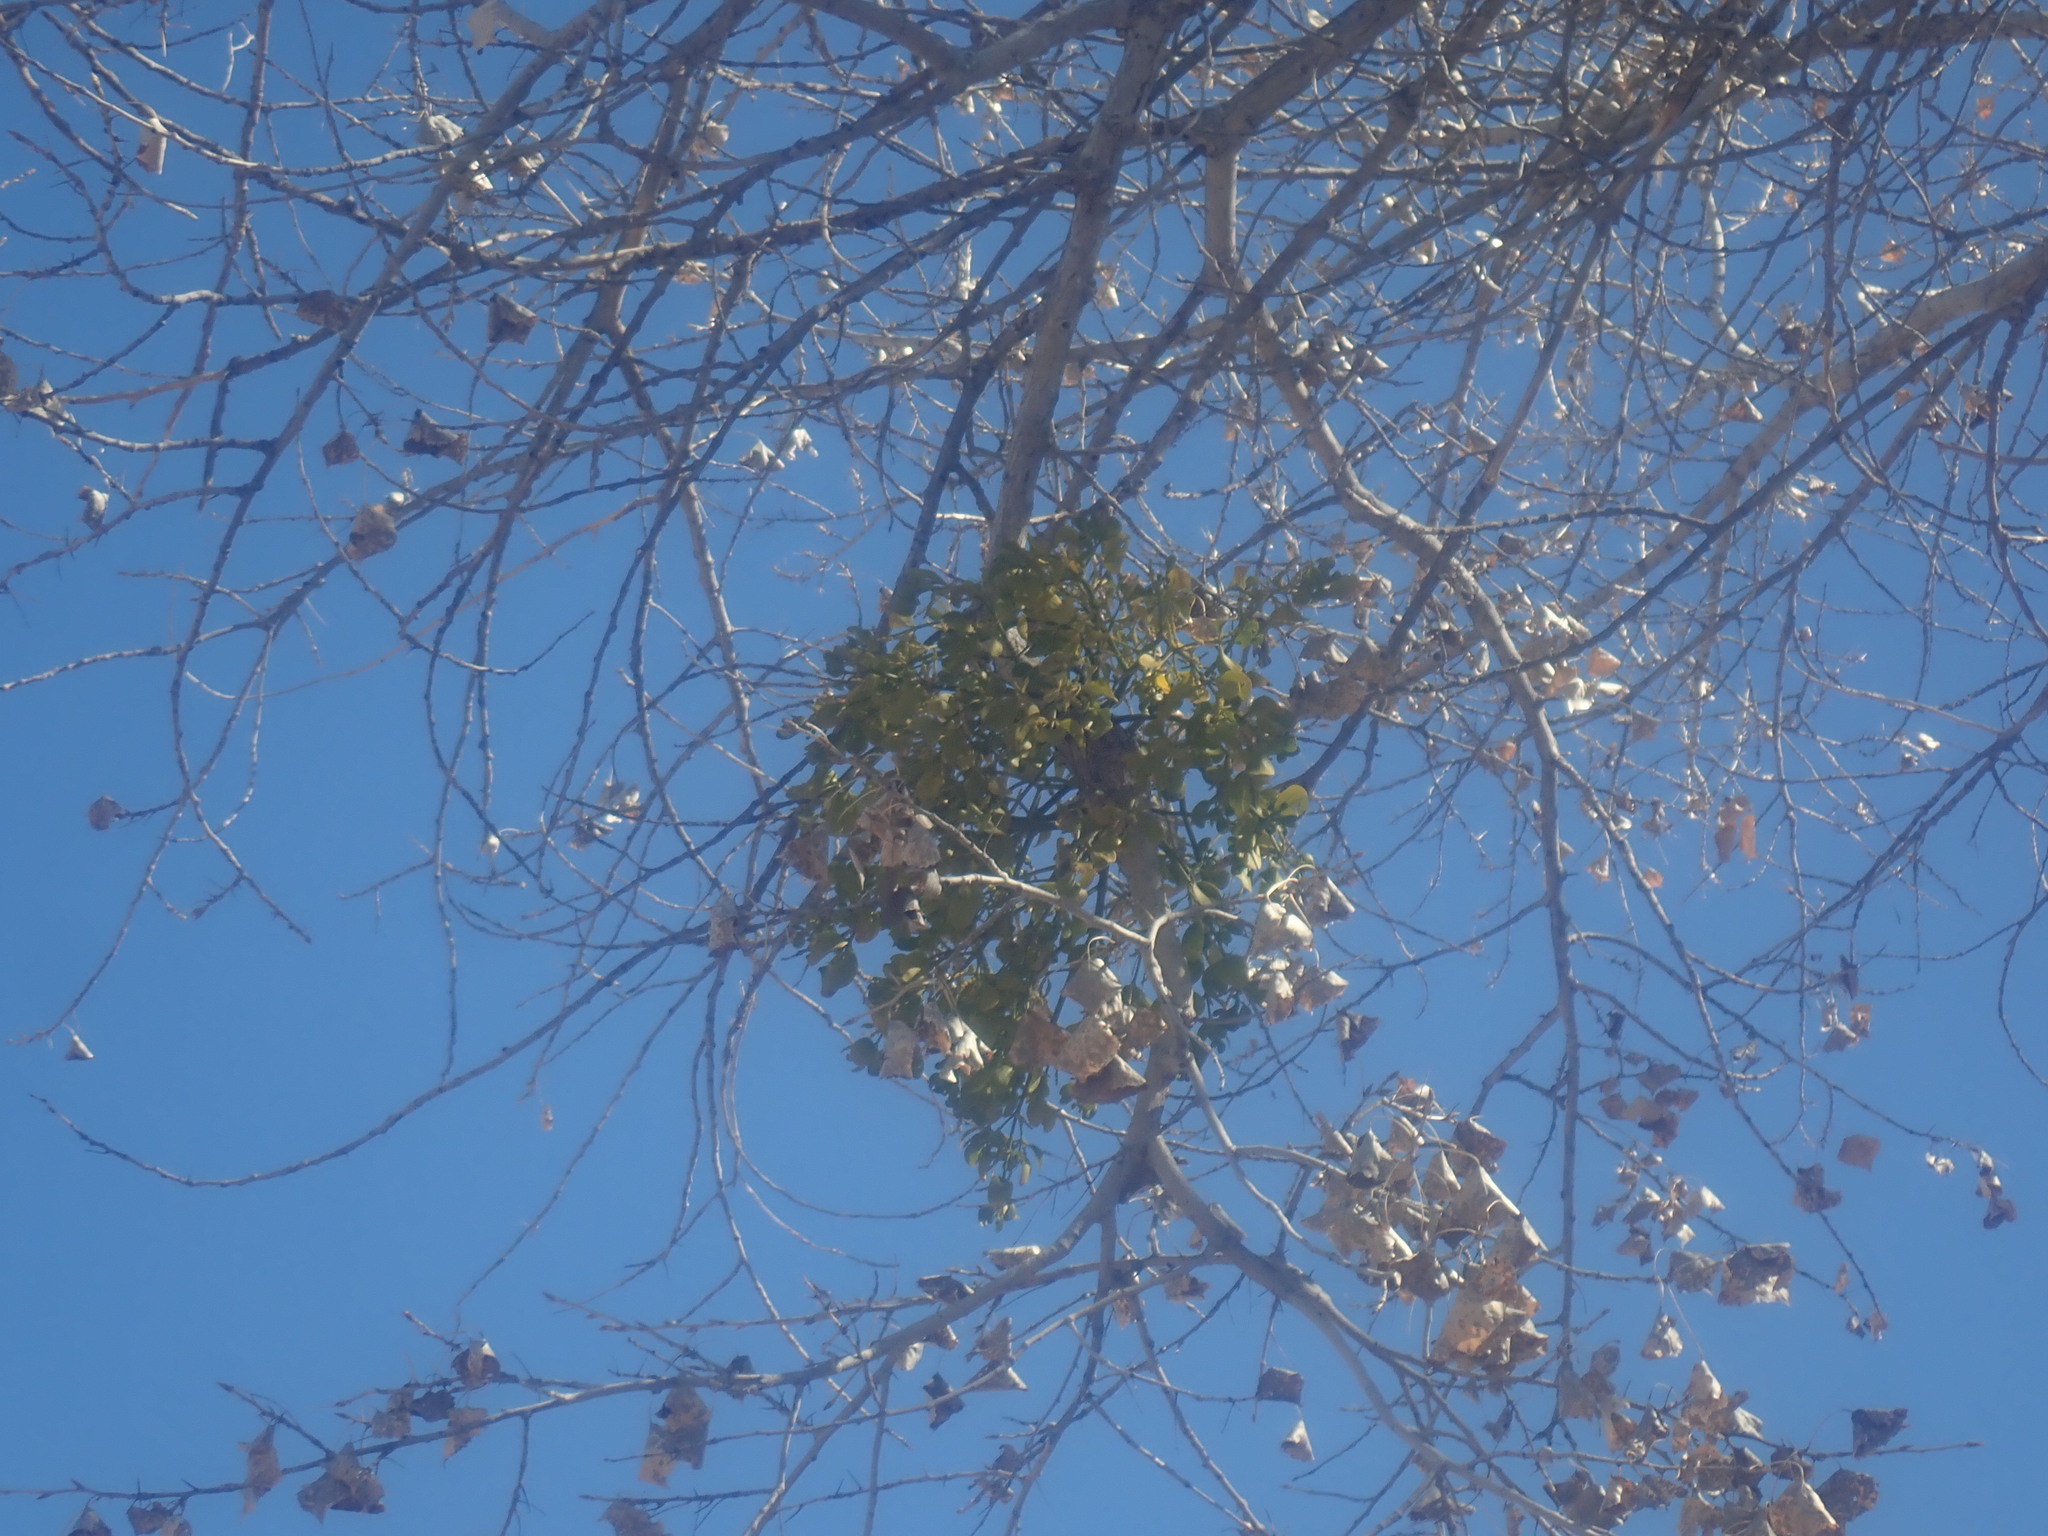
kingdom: Plantae
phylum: Tracheophyta
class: Magnoliopsida
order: Santalales
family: Viscaceae
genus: Phoradendron
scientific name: Phoradendron
